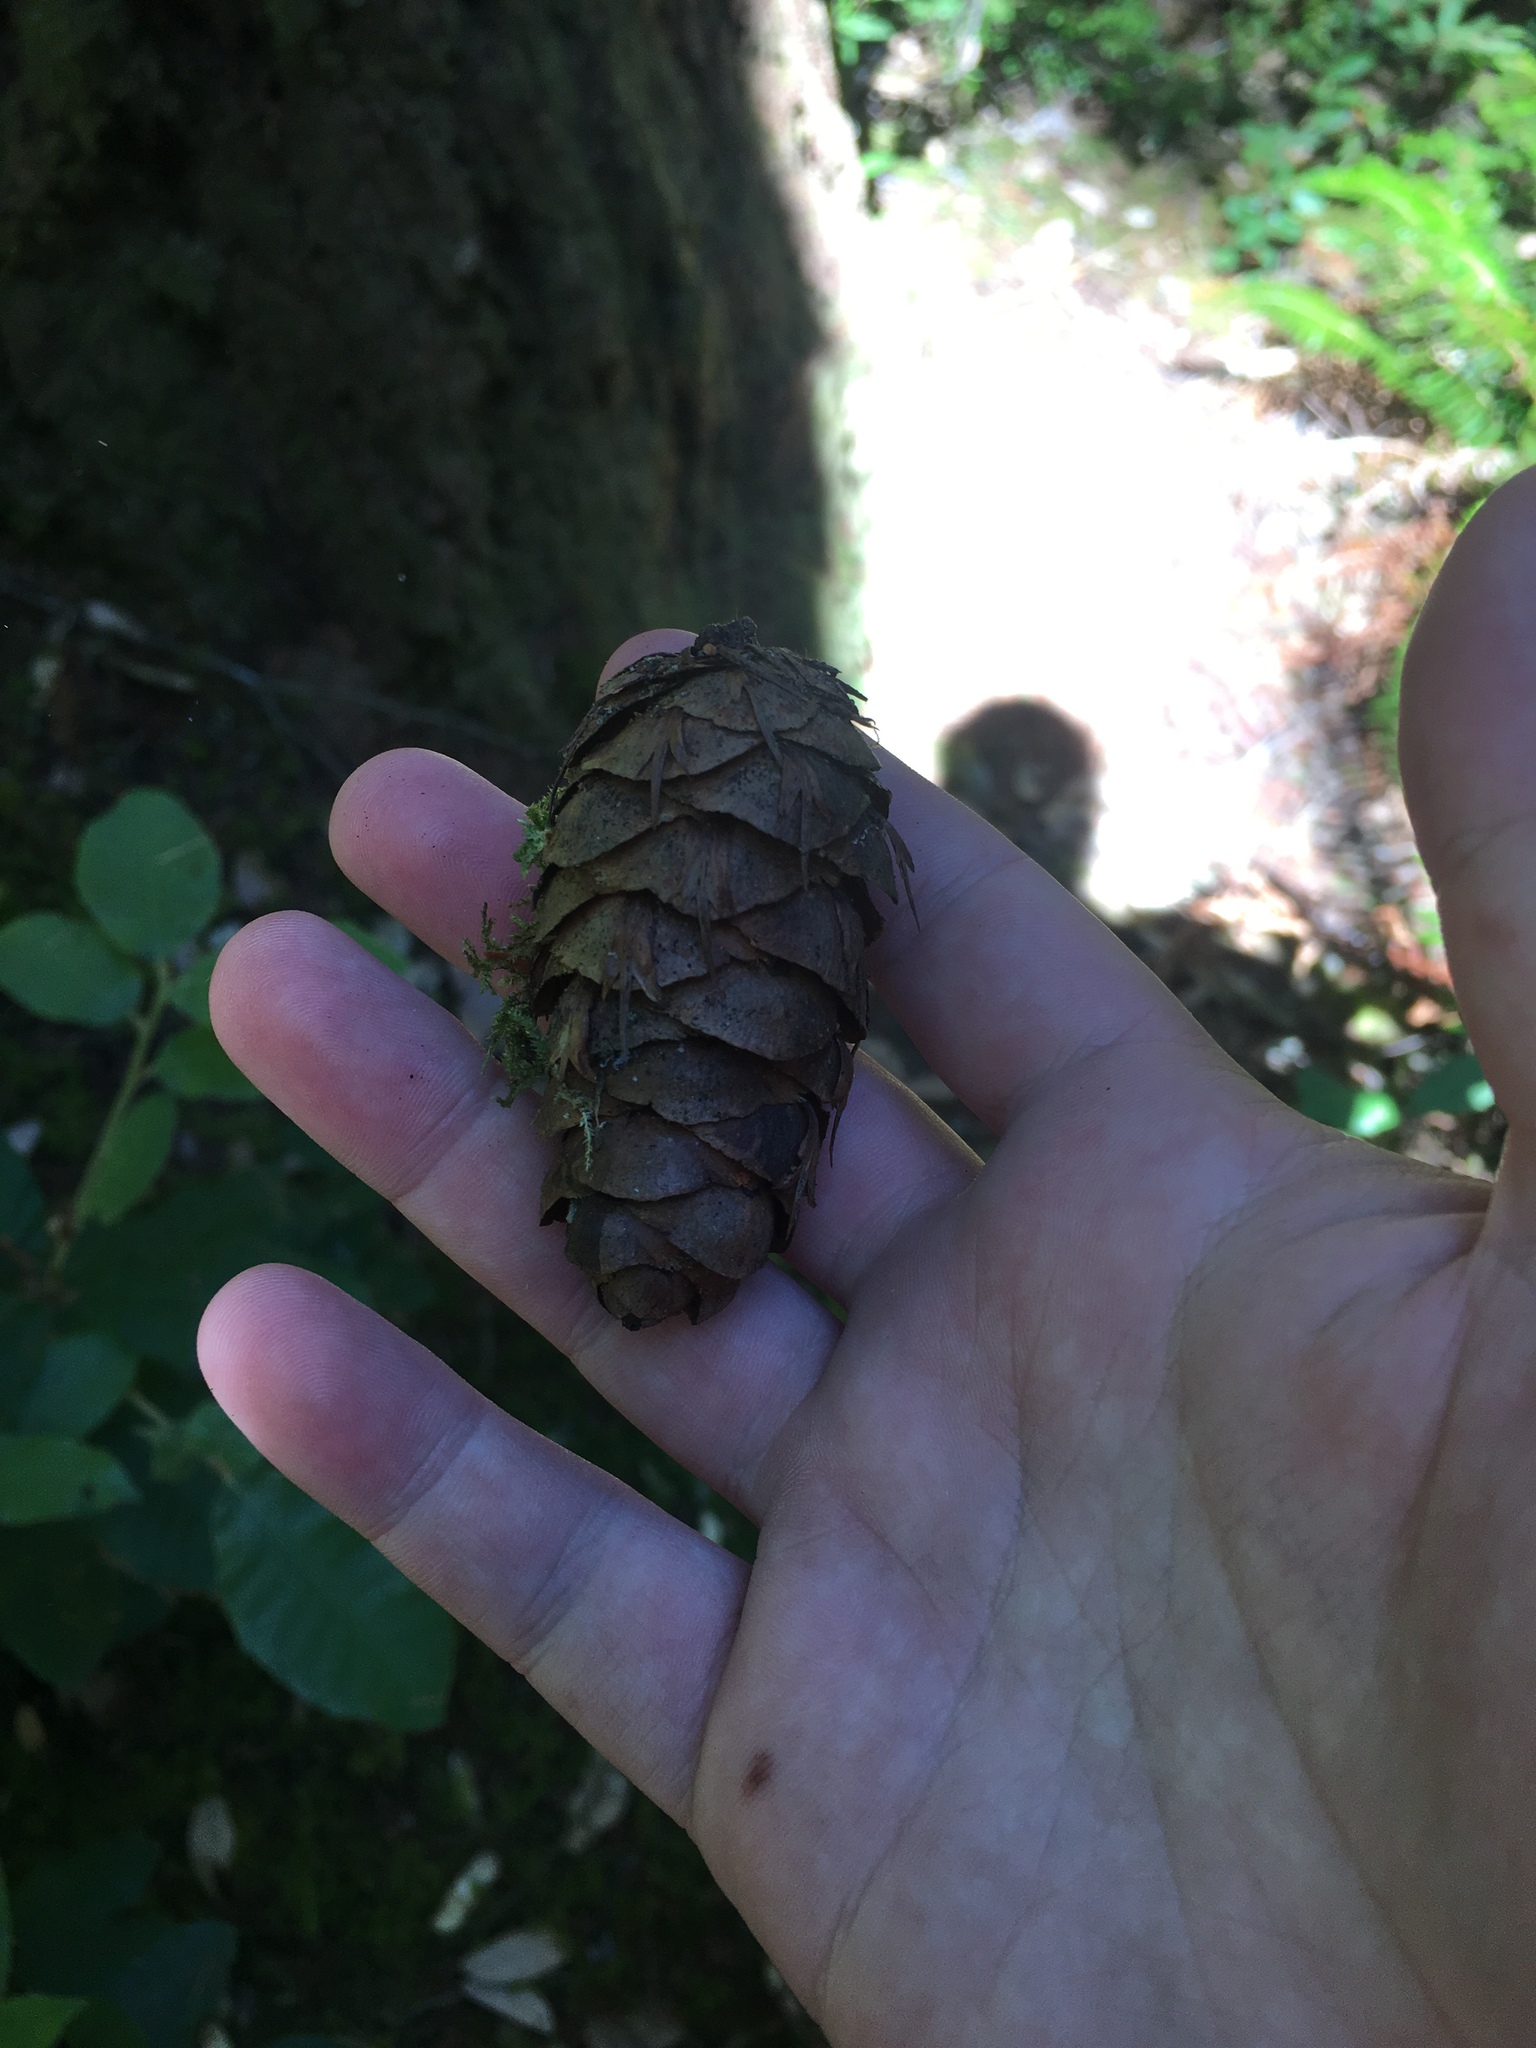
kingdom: Plantae
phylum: Tracheophyta
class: Pinopsida
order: Pinales
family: Pinaceae
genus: Pseudotsuga
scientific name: Pseudotsuga menziesii
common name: Douglas fir
